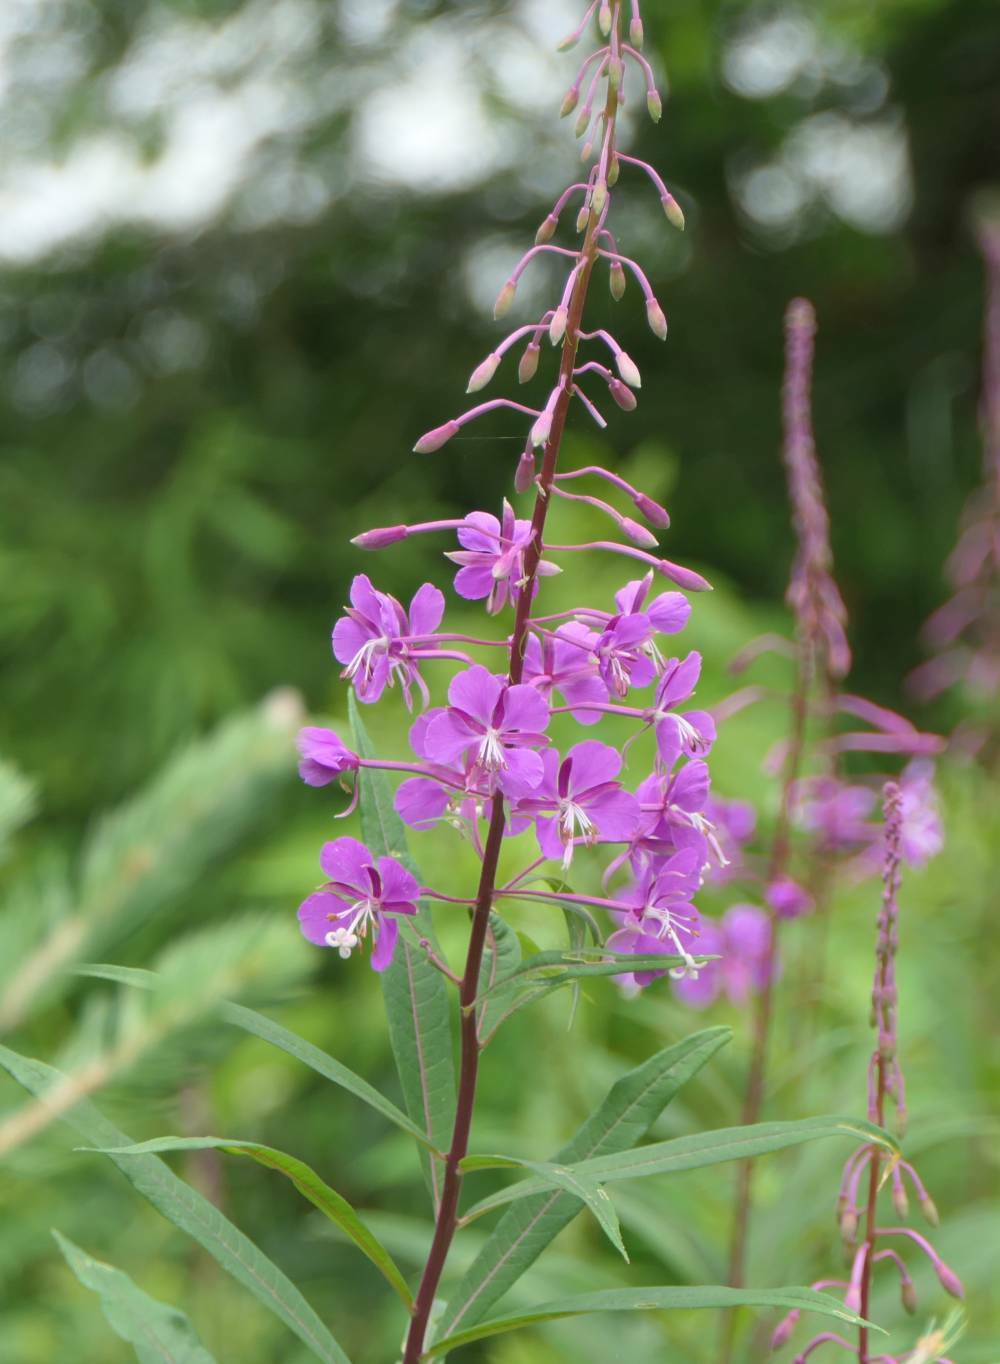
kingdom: Plantae
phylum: Tracheophyta
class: Magnoliopsida
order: Myrtales
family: Onagraceae
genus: Chamaenerion
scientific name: Chamaenerion angustifolium
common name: Fireweed
